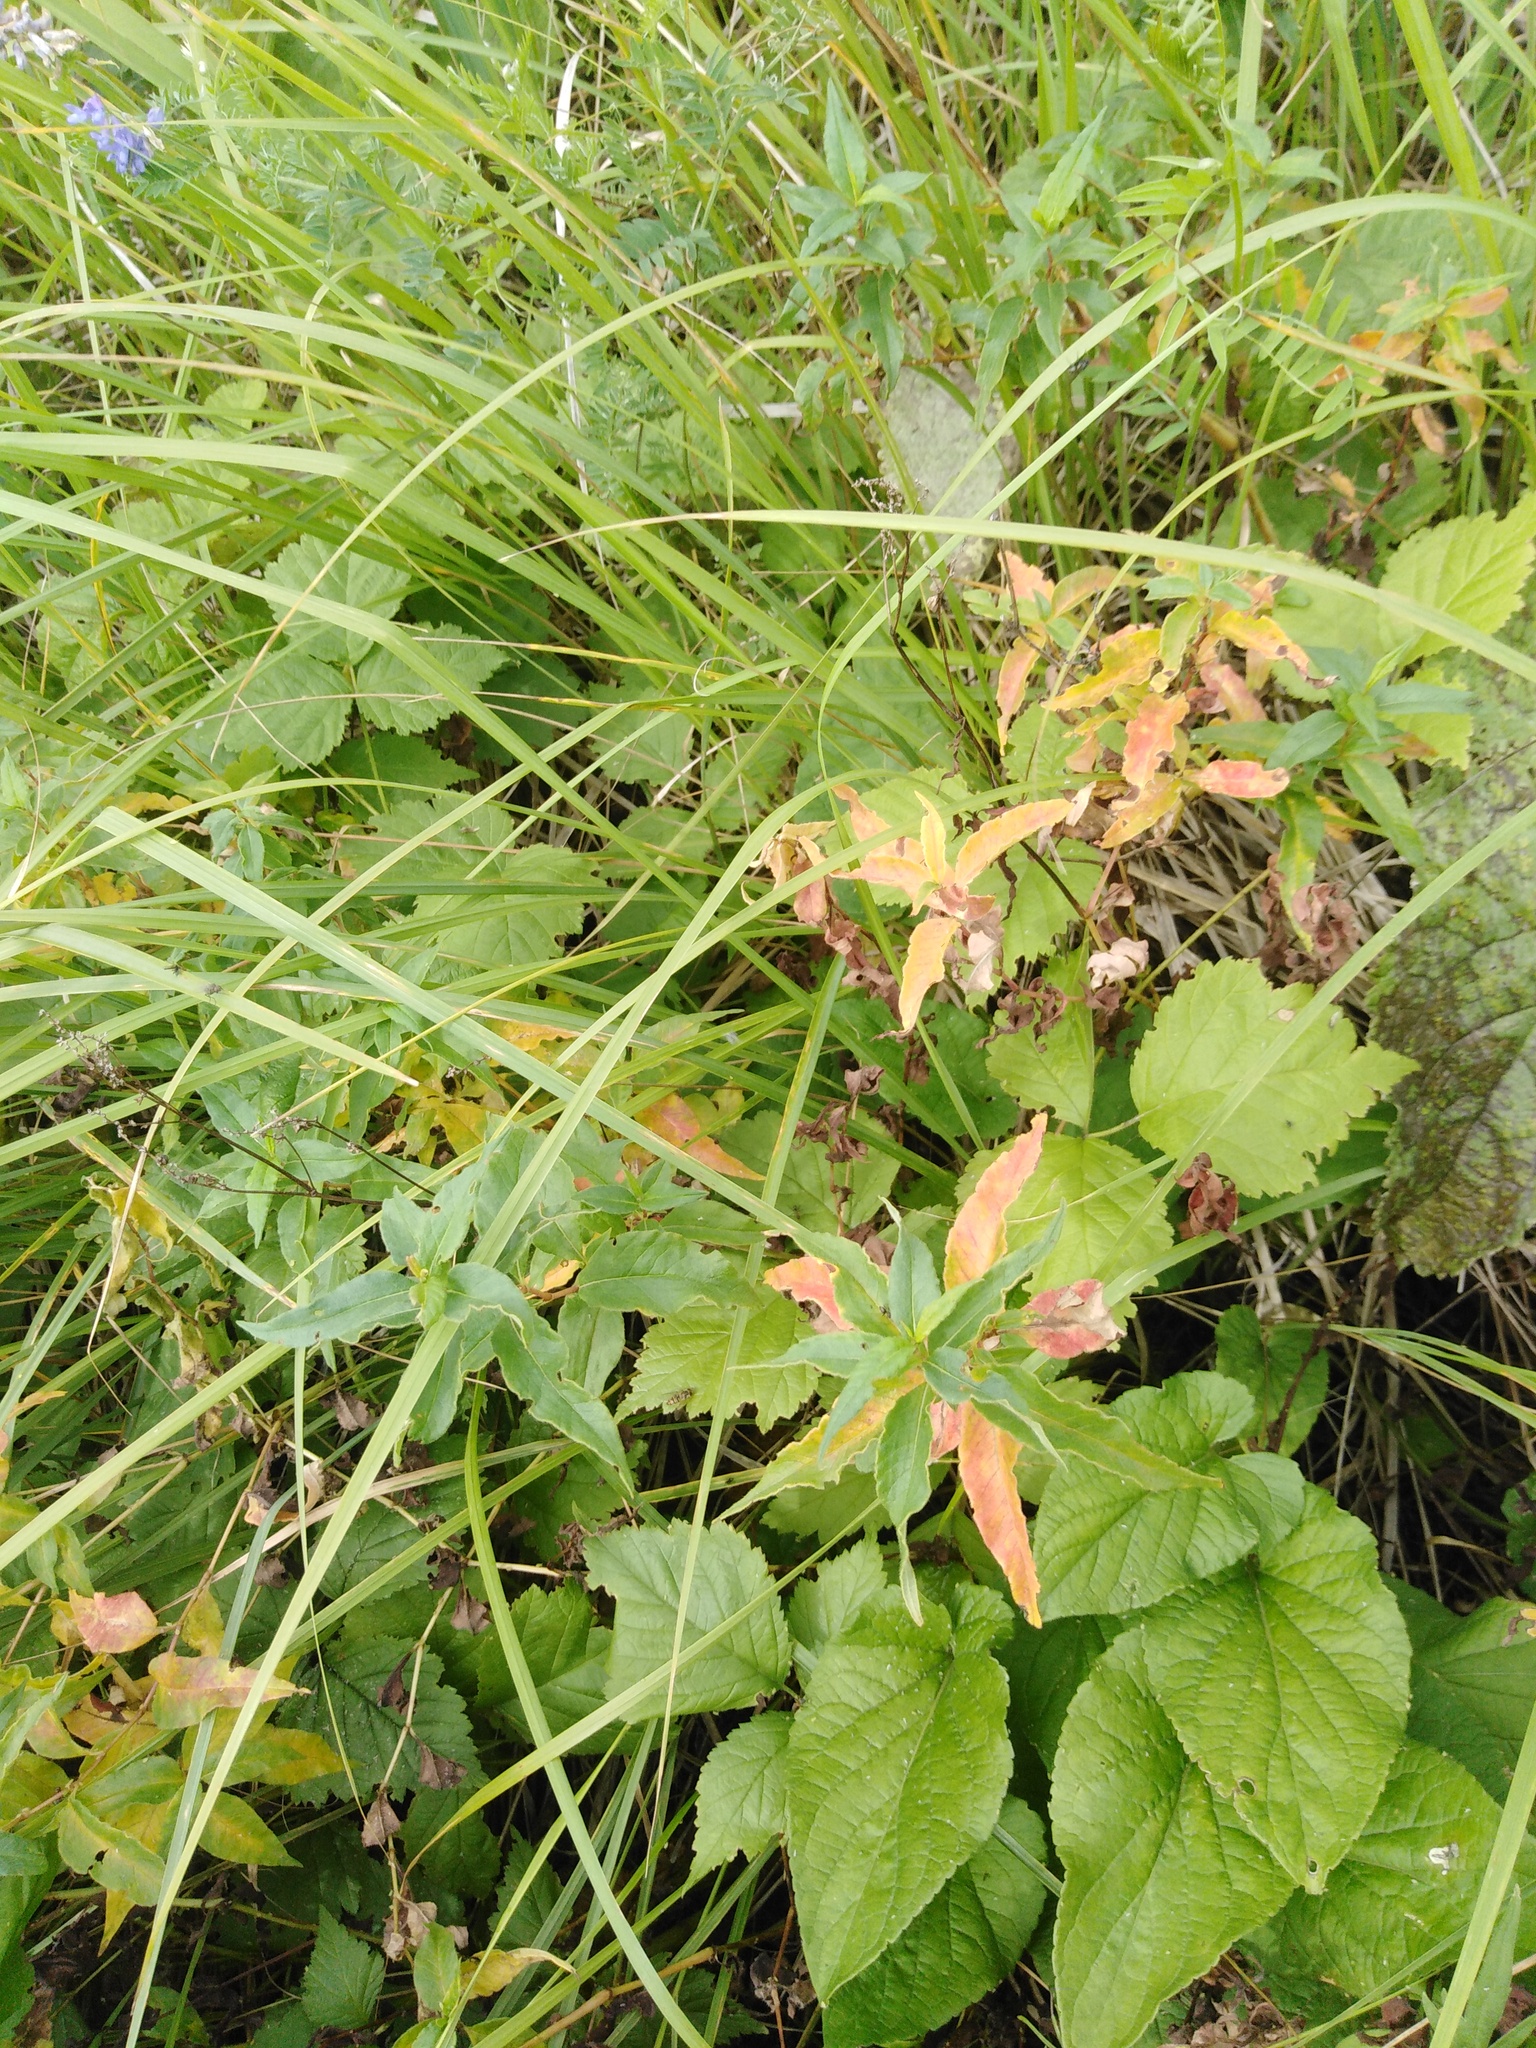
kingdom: Plantae
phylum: Tracheophyta
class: Magnoliopsida
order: Caryophyllales
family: Polygonaceae
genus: Koenigia
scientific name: Koenigia alpina
